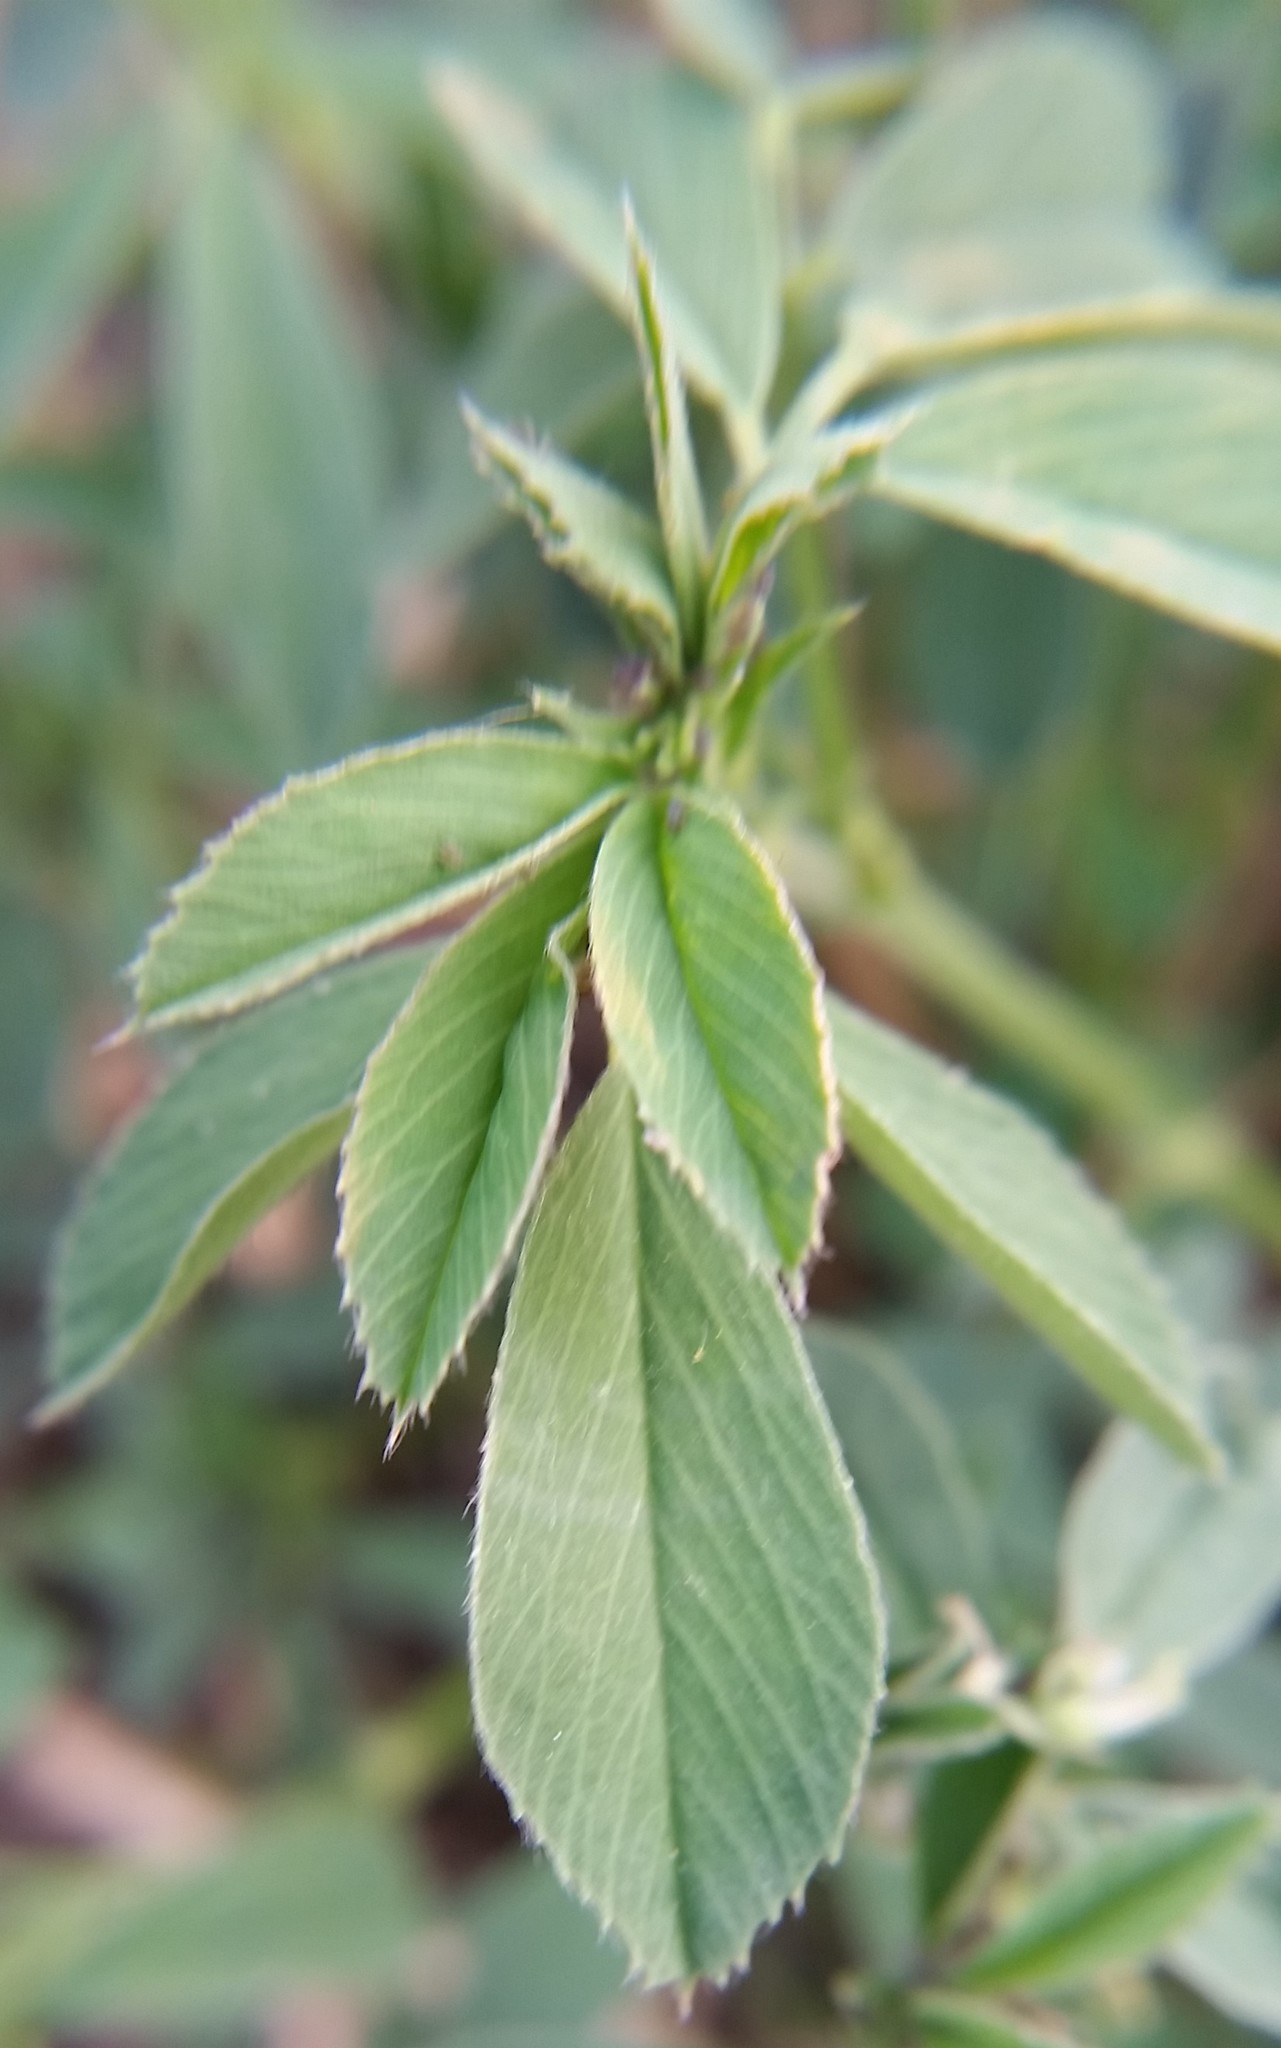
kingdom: Plantae
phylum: Tracheophyta
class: Magnoliopsida
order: Fabales
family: Fabaceae
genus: Medicago
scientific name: Medicago sativa
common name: Alfalfa
